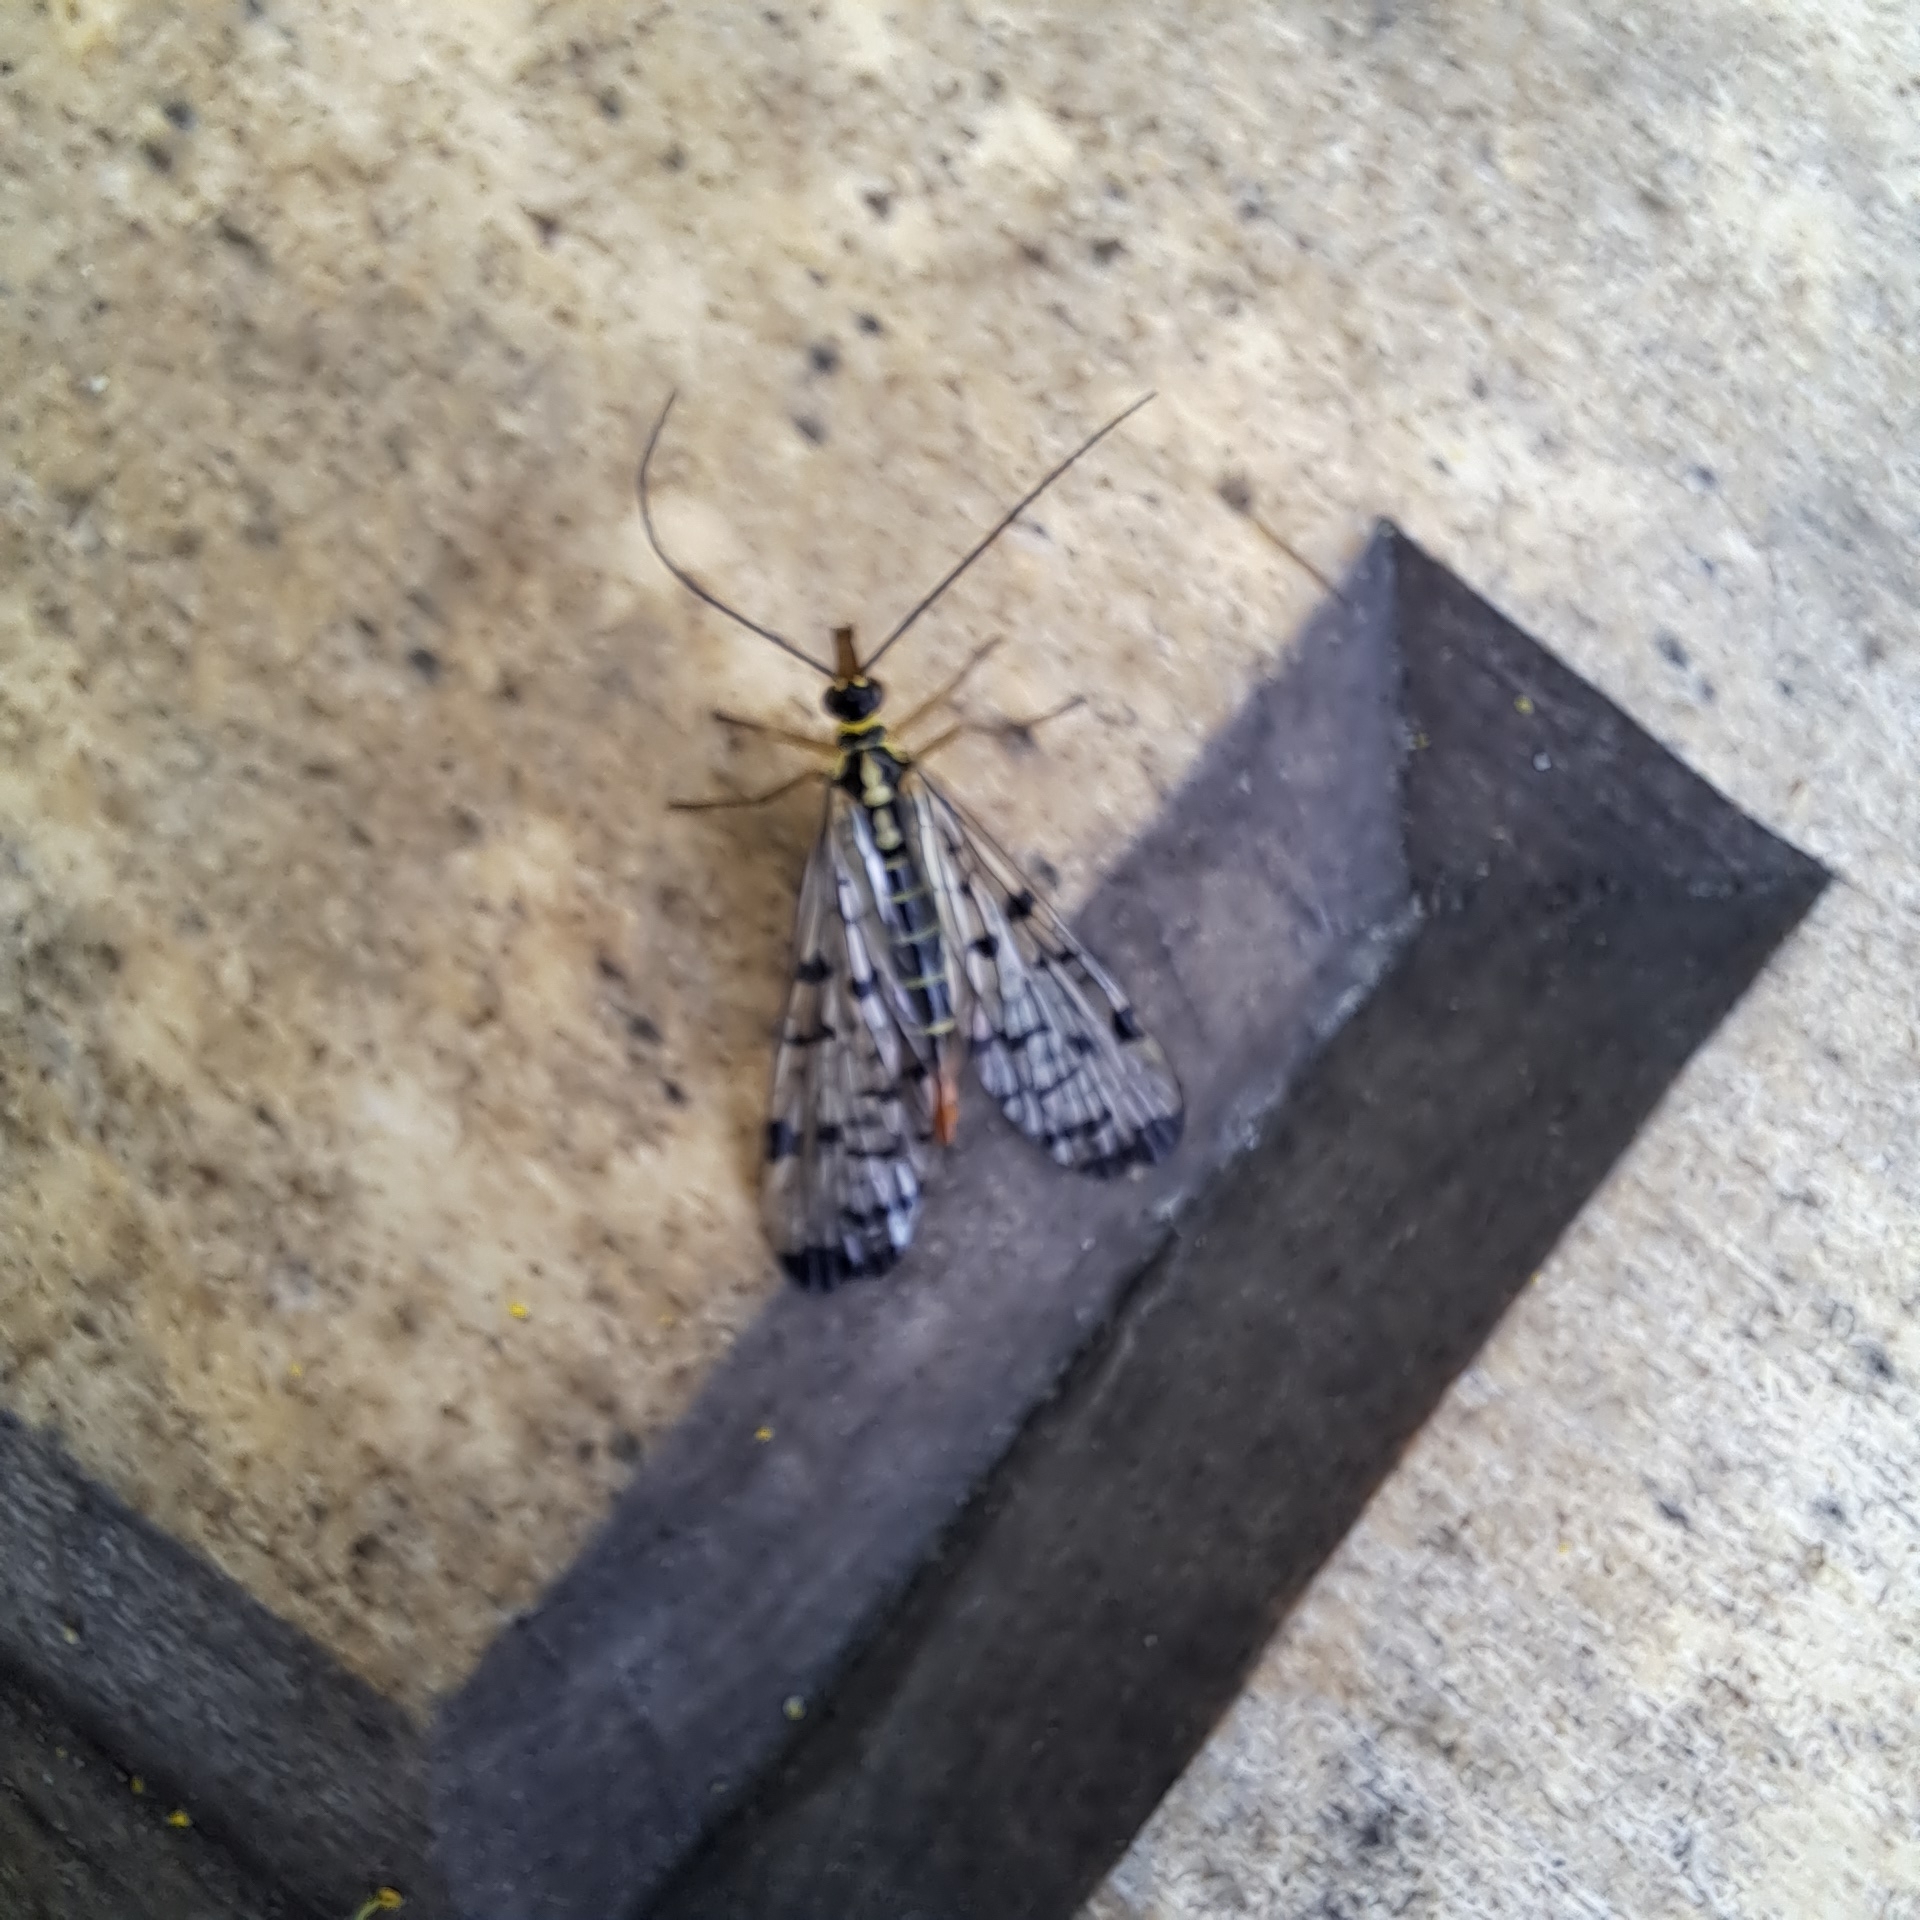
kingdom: Animalia
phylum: Arthropoda
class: Insecta
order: Mecoptera
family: Panorpidae
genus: Panorpa
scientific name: Panorpa germanica
